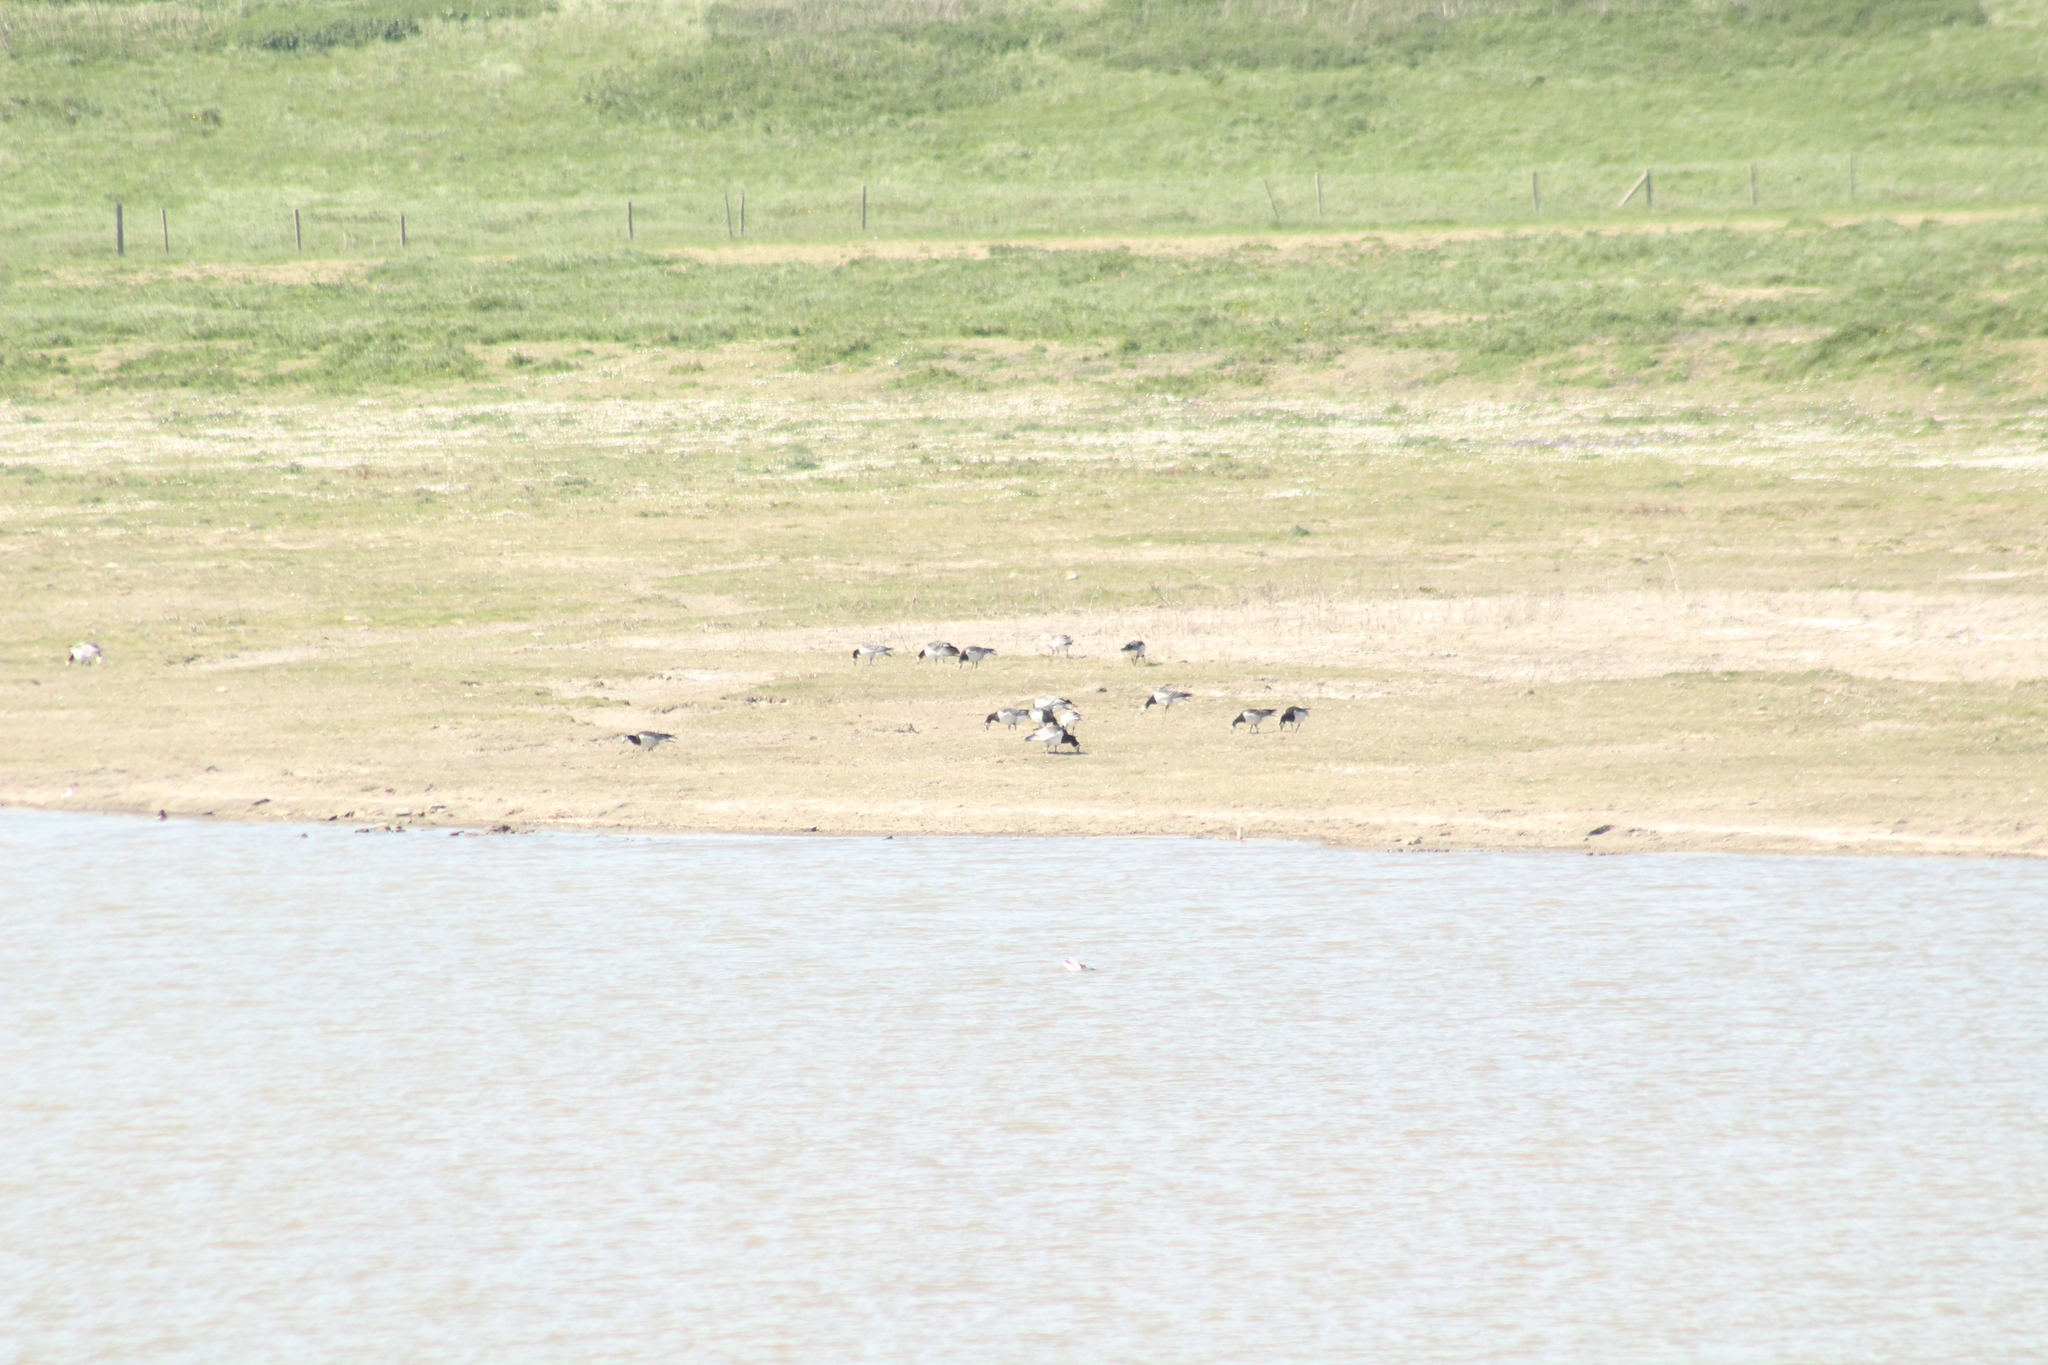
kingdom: Animalia
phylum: Chordata
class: Aves
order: Anseriformes
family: Anatidae
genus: Branta
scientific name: Branta leucopsis
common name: Barnacle goose
